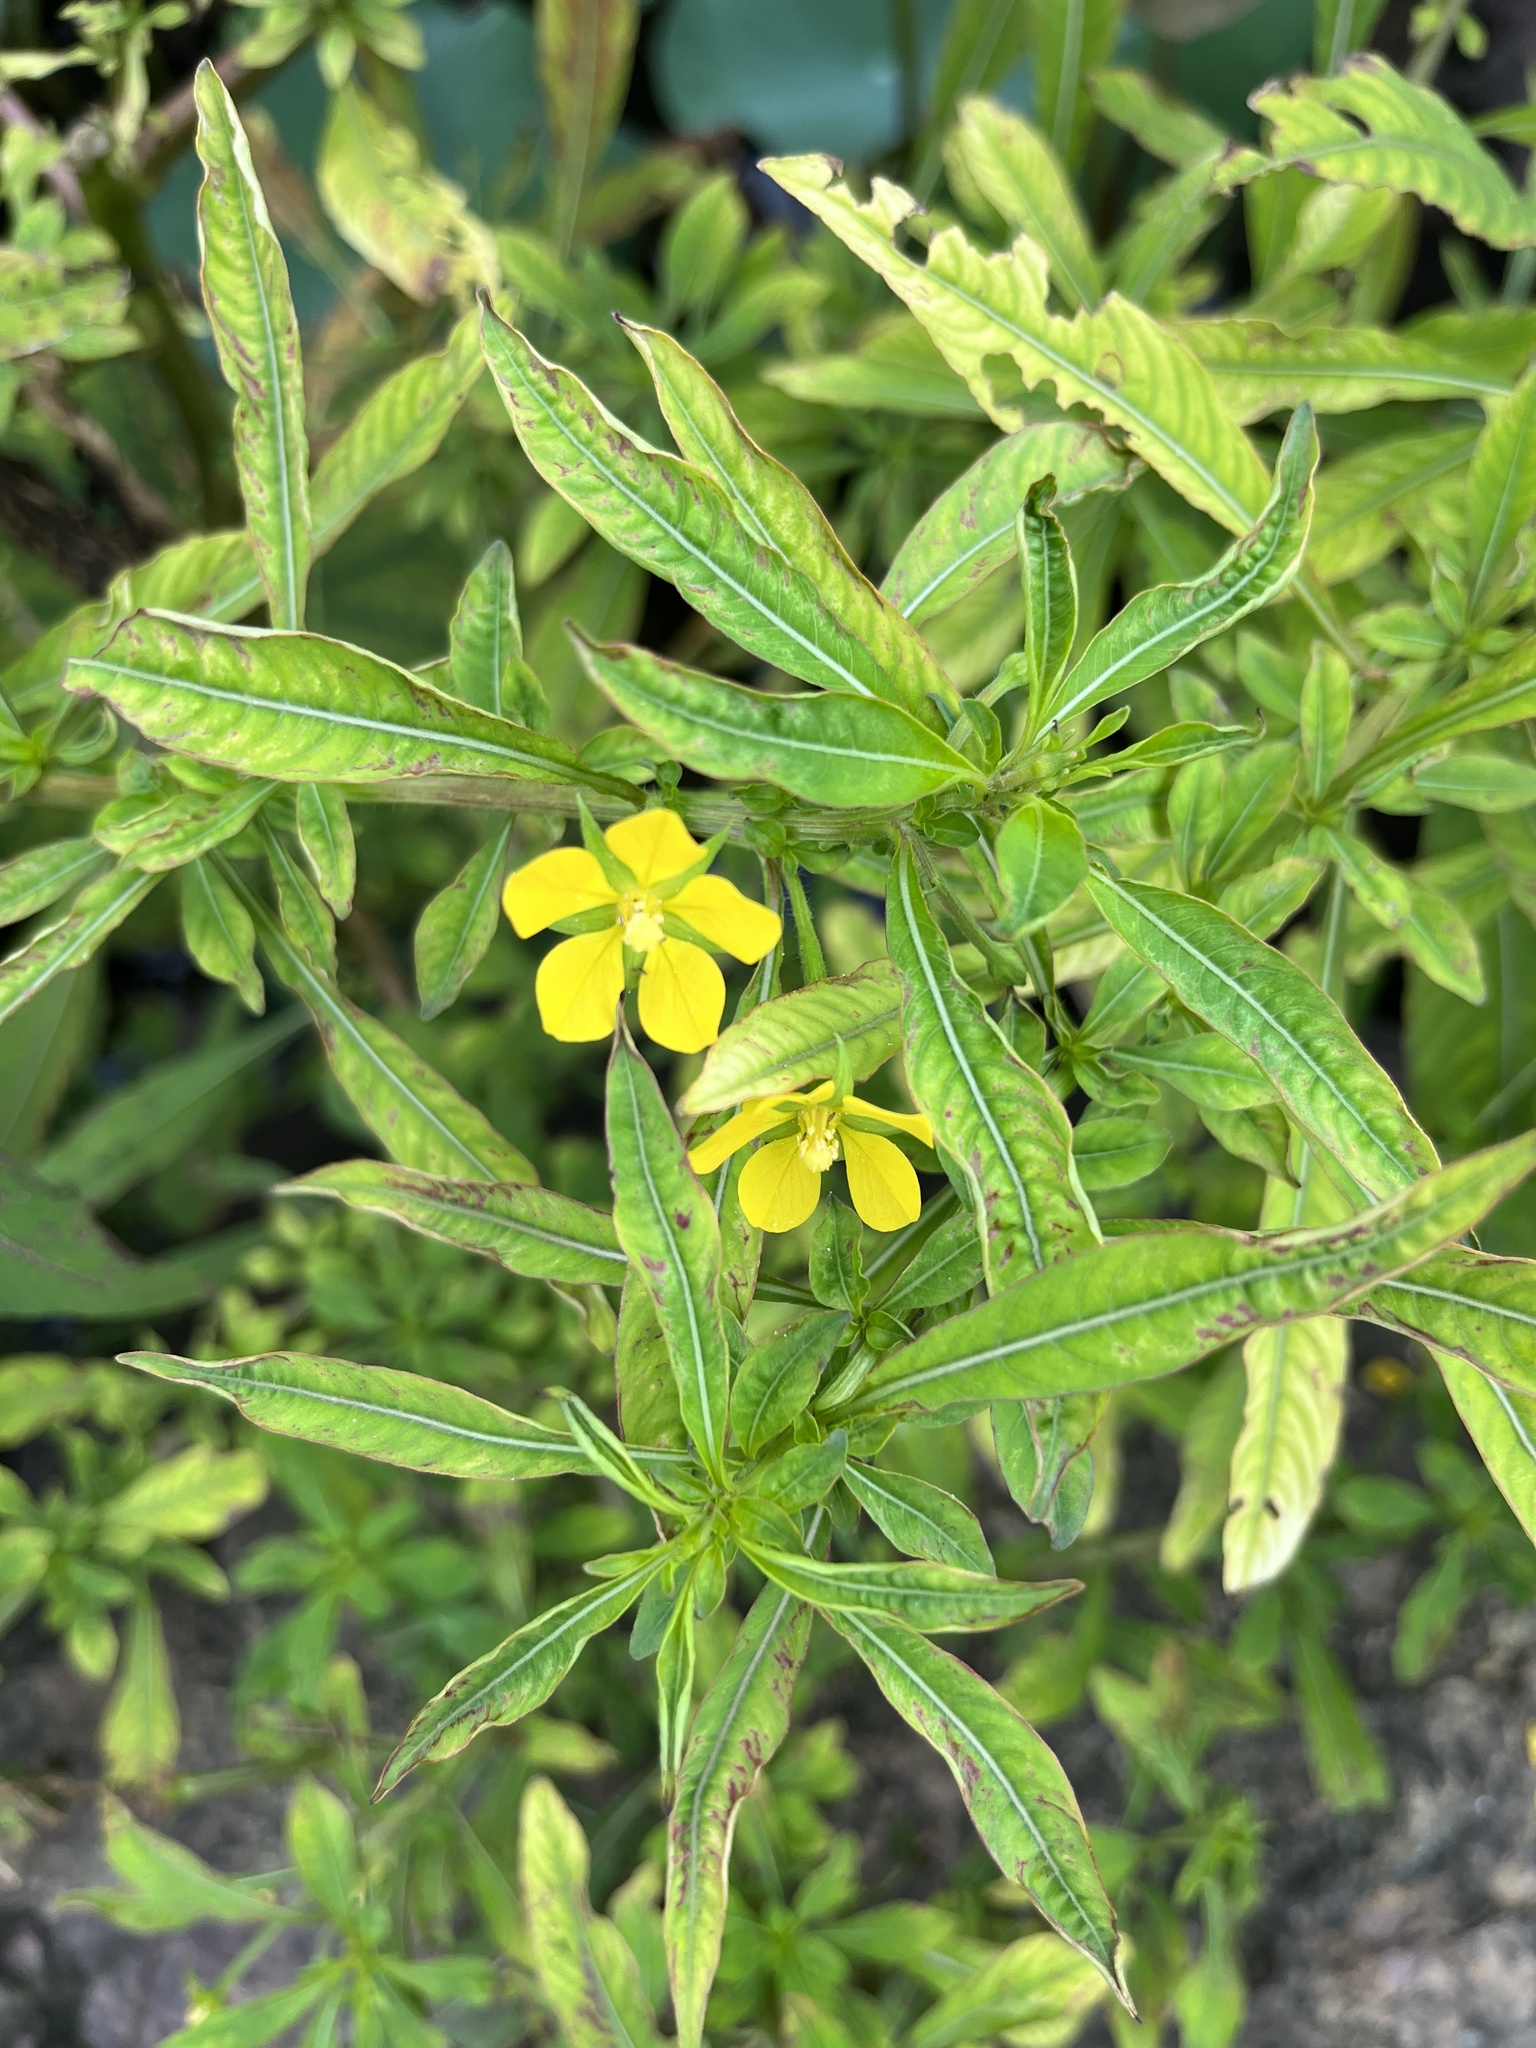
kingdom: Plantae
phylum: Tracheophyta
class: Magnoliopsida
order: Myrtales
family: Onagraceae
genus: Ludwigia
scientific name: Ludwigia leptocarpa
